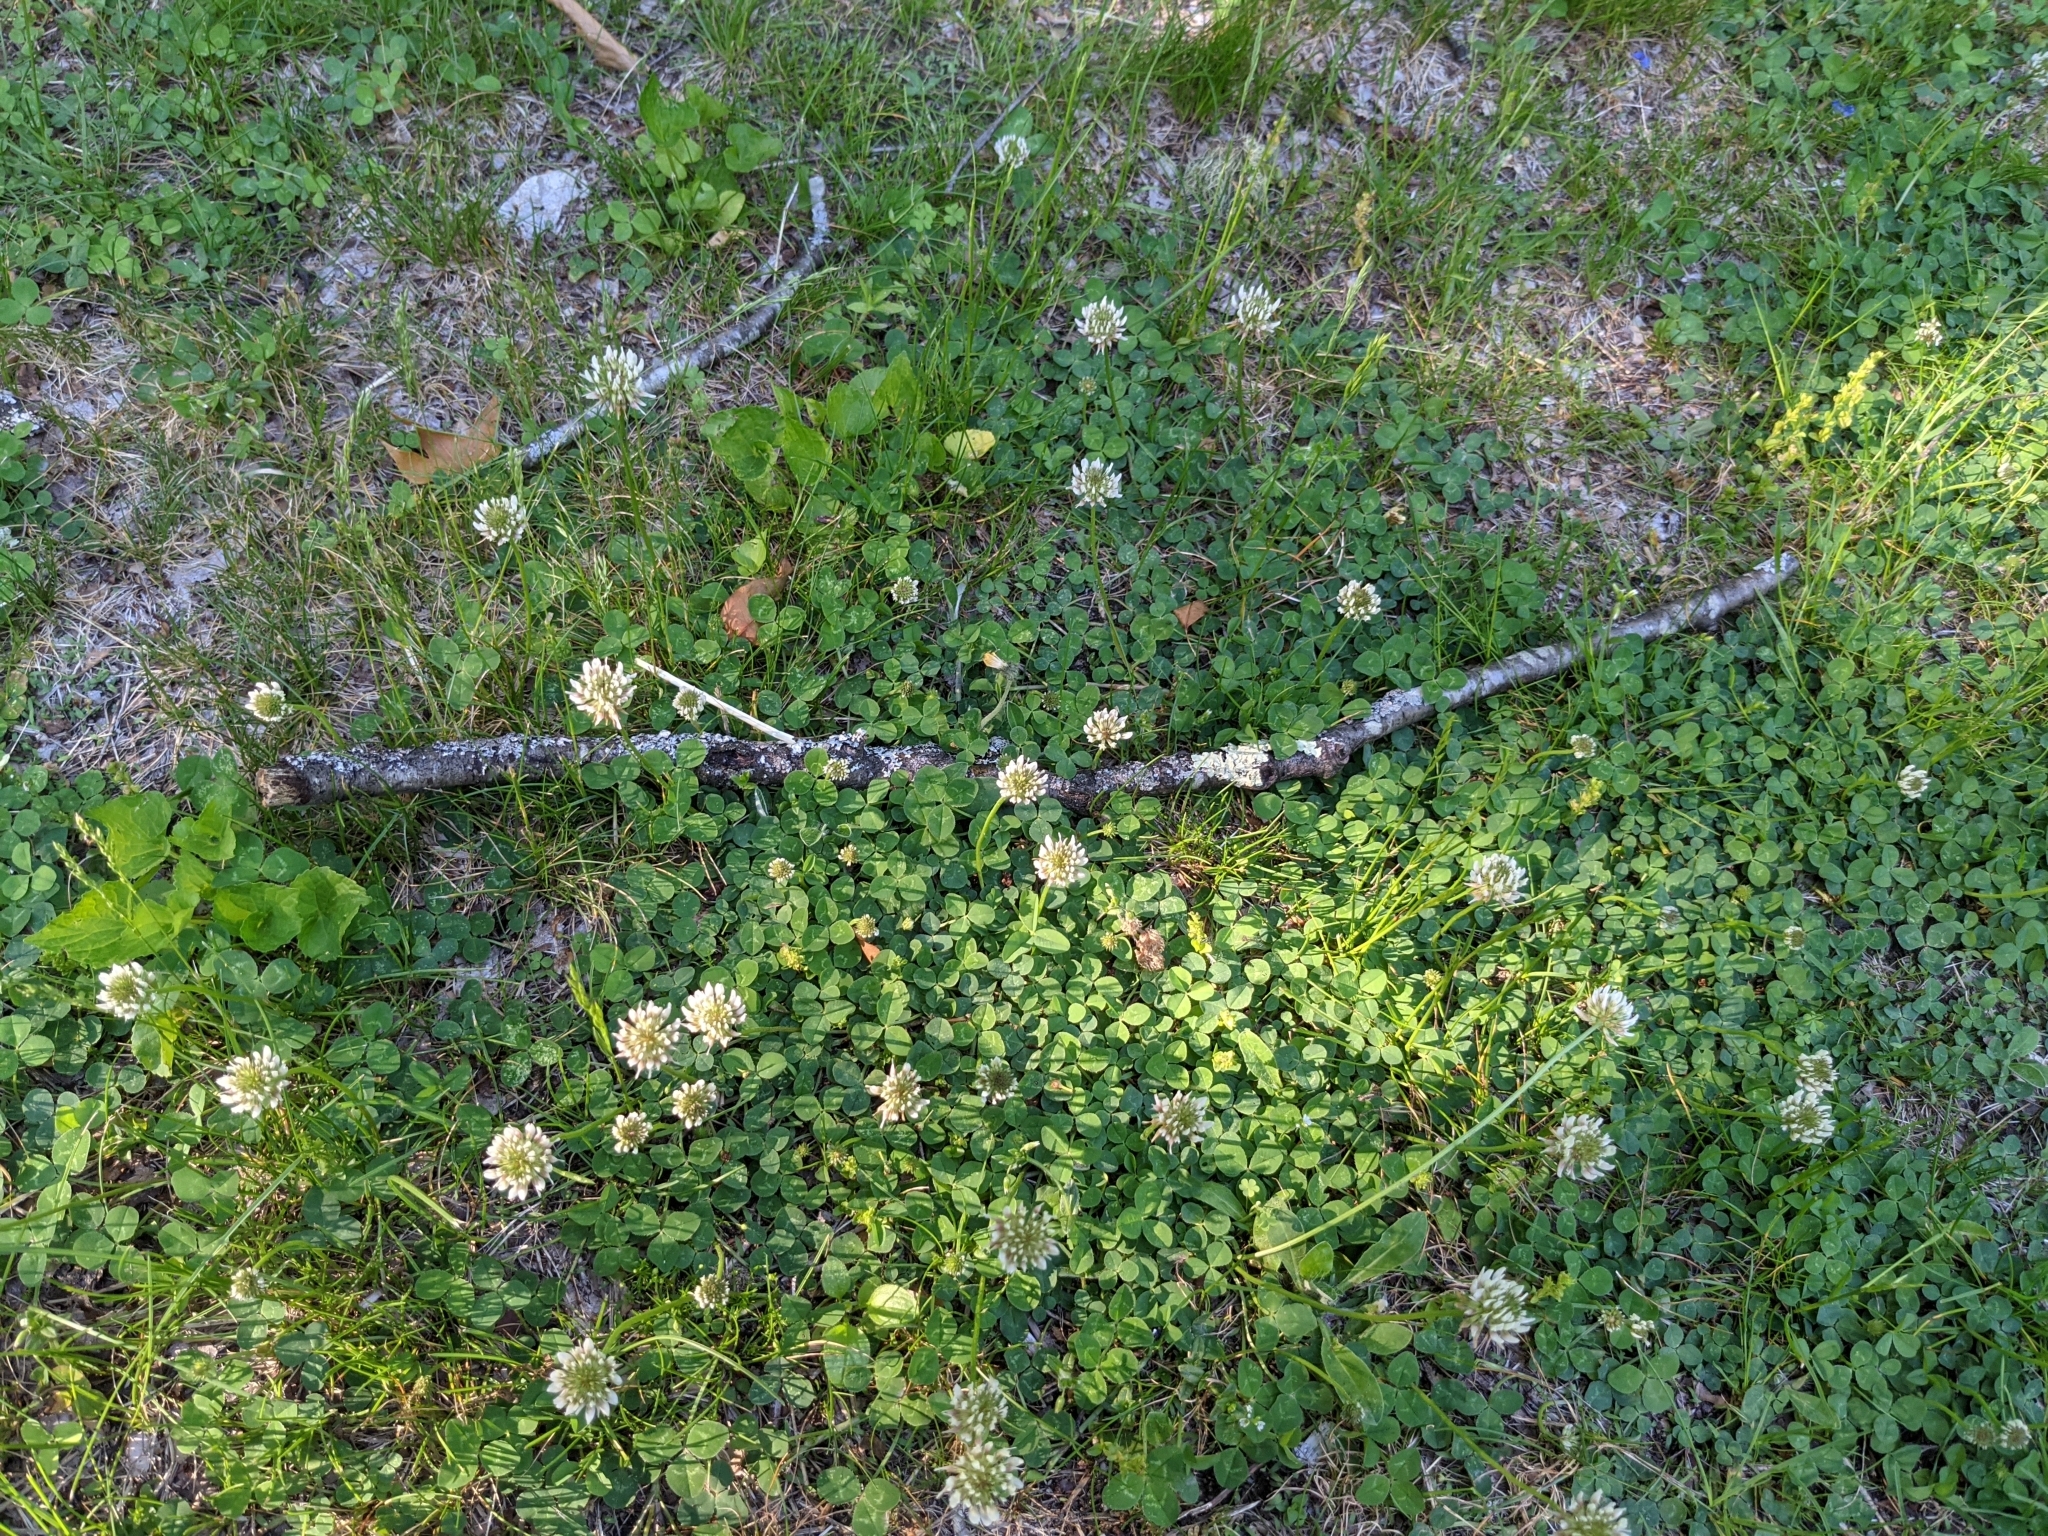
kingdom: Plantae
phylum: Tracheophyta
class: Magnoliopsida
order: Fabales
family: Fabaceae
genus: Trifolium
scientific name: Trifolium repens
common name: White clover
